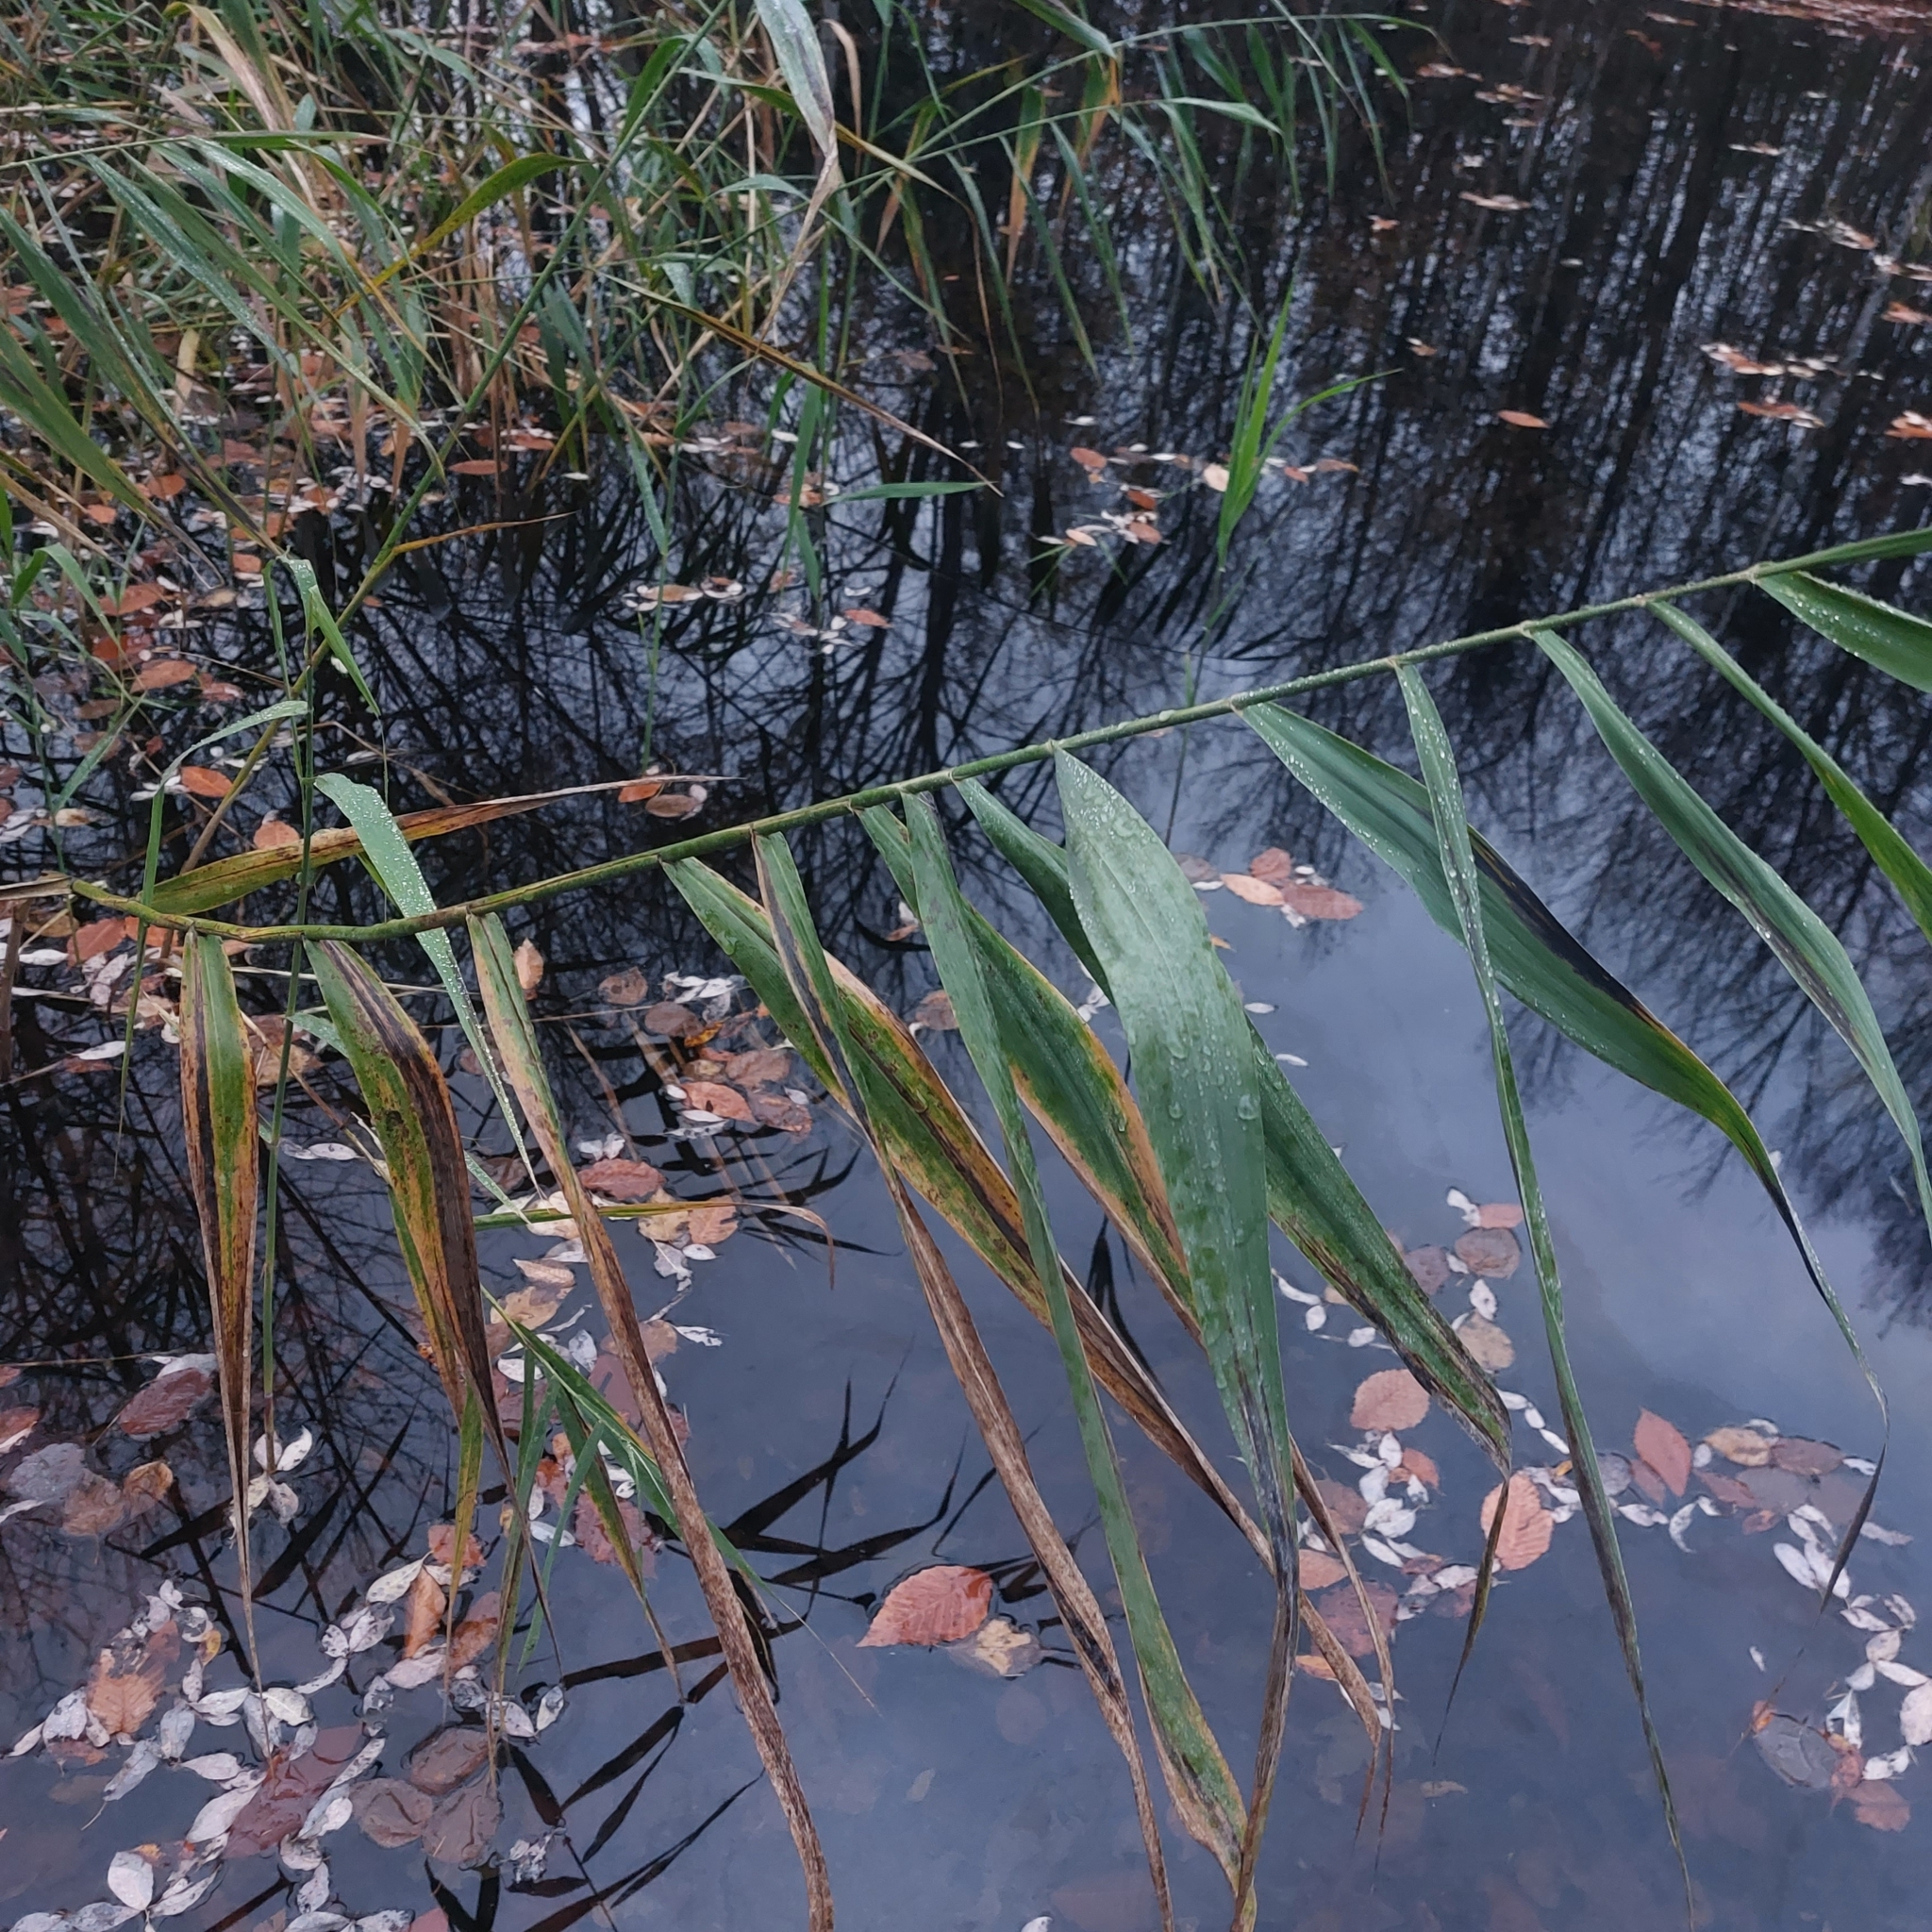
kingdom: Plantae
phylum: Tracheophyta
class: Liliopsida
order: Poales
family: Poaceae
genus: Phragmites
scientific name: Phragmites australis
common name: Common reed
